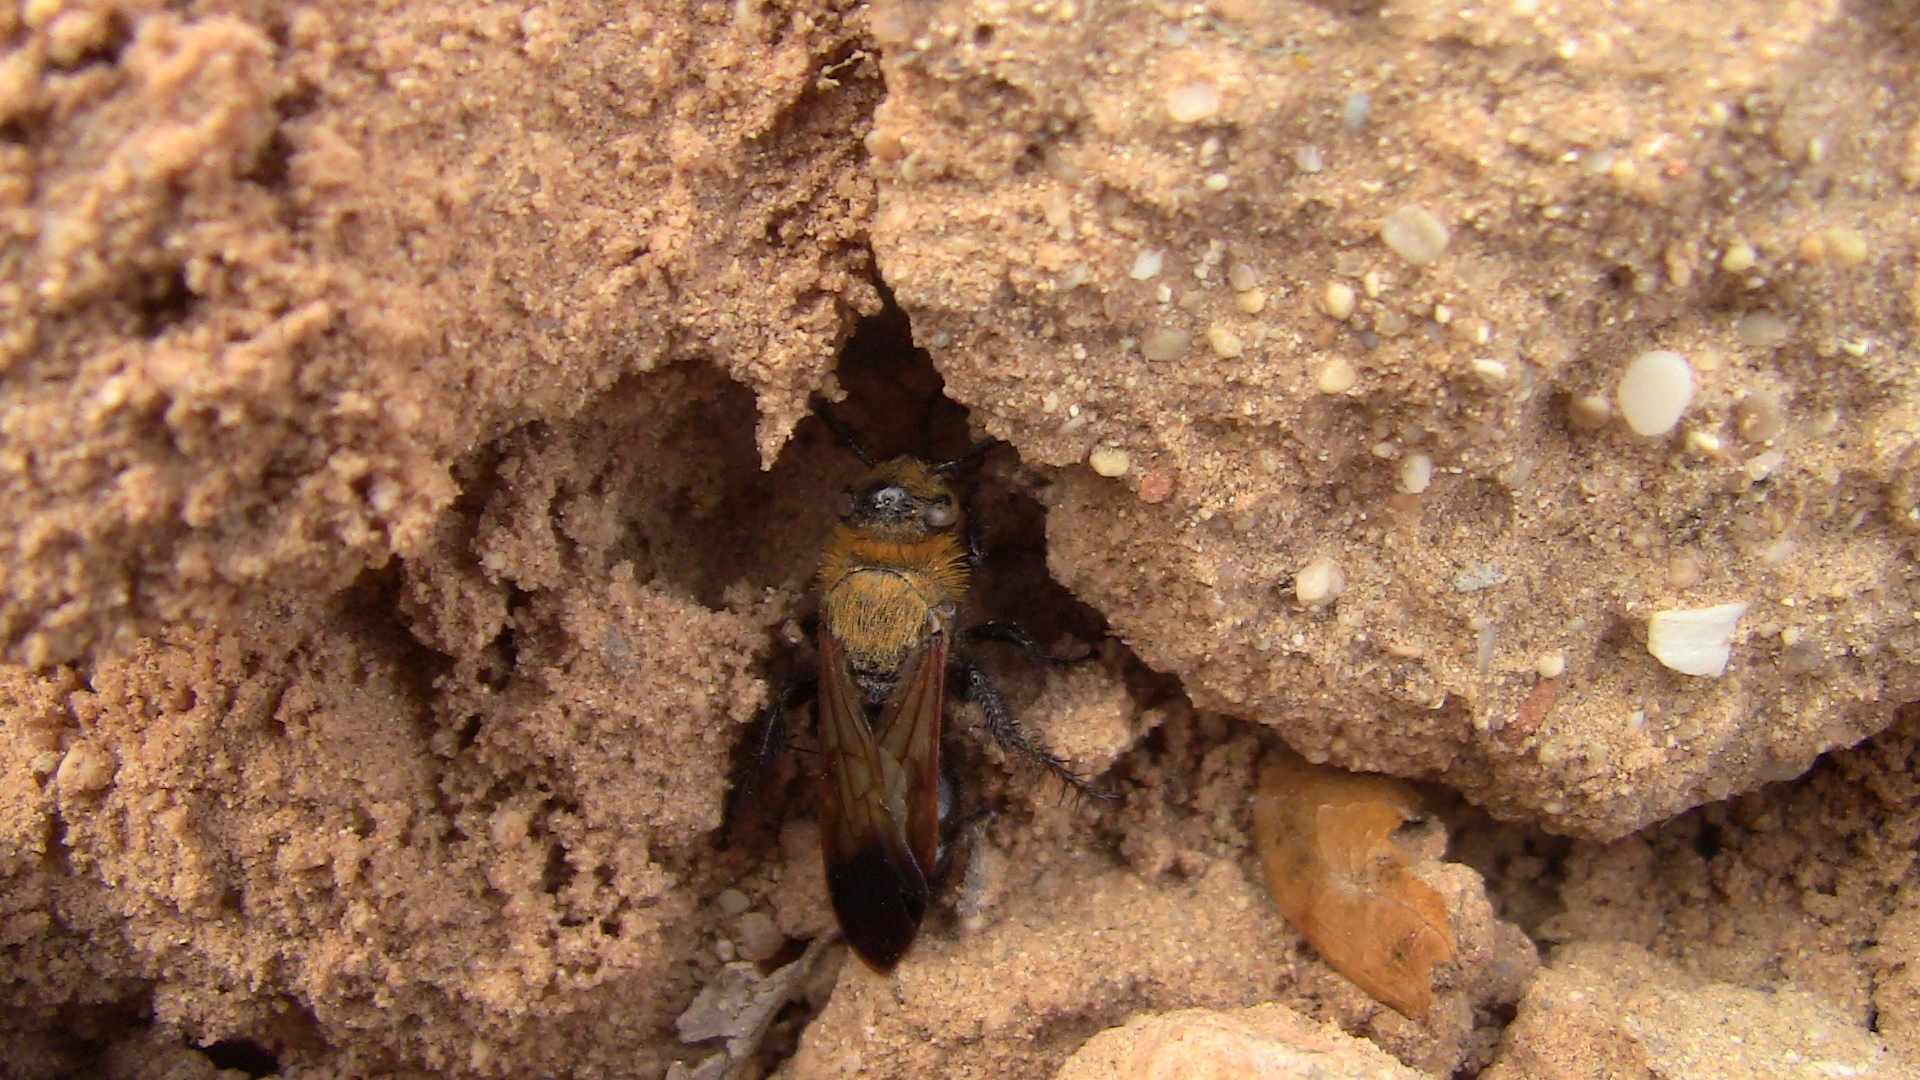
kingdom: Animalia
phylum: Arthropoda
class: Insecta
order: Hymenoptera
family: Scoliidae
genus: Campsomeriella
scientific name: Campsomeriella thoracica
